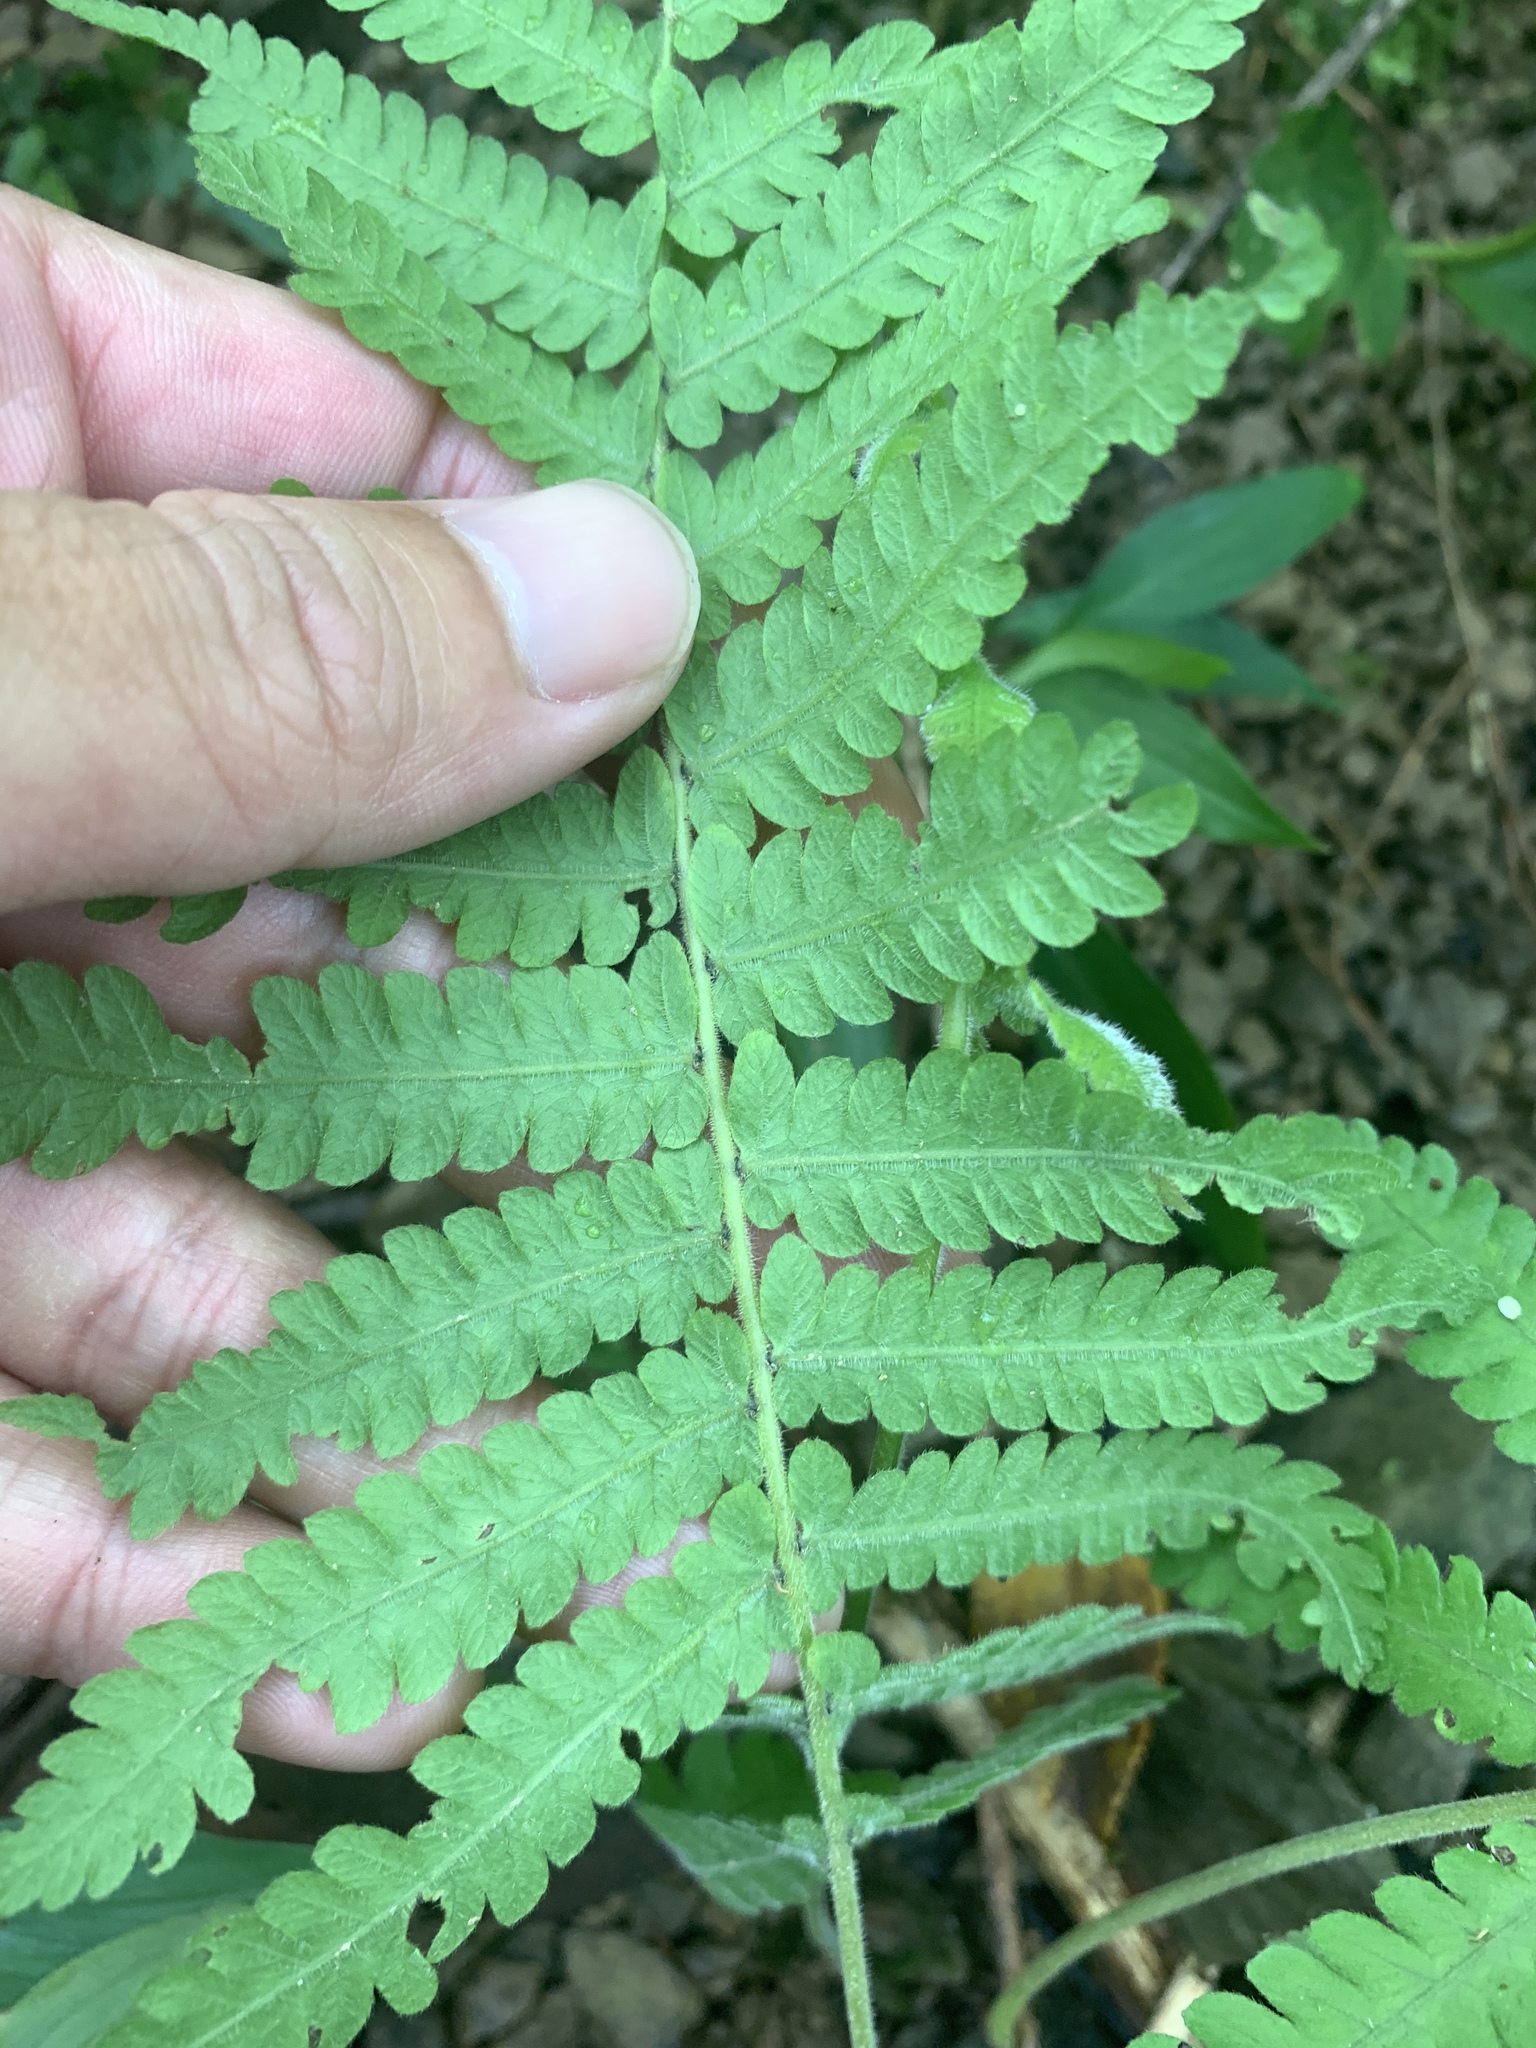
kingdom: Plantae
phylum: Tracheophyta
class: Polypodiopsida
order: Polypodiales
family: Thelypteridaceae
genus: Christella
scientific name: Christella parasitica
